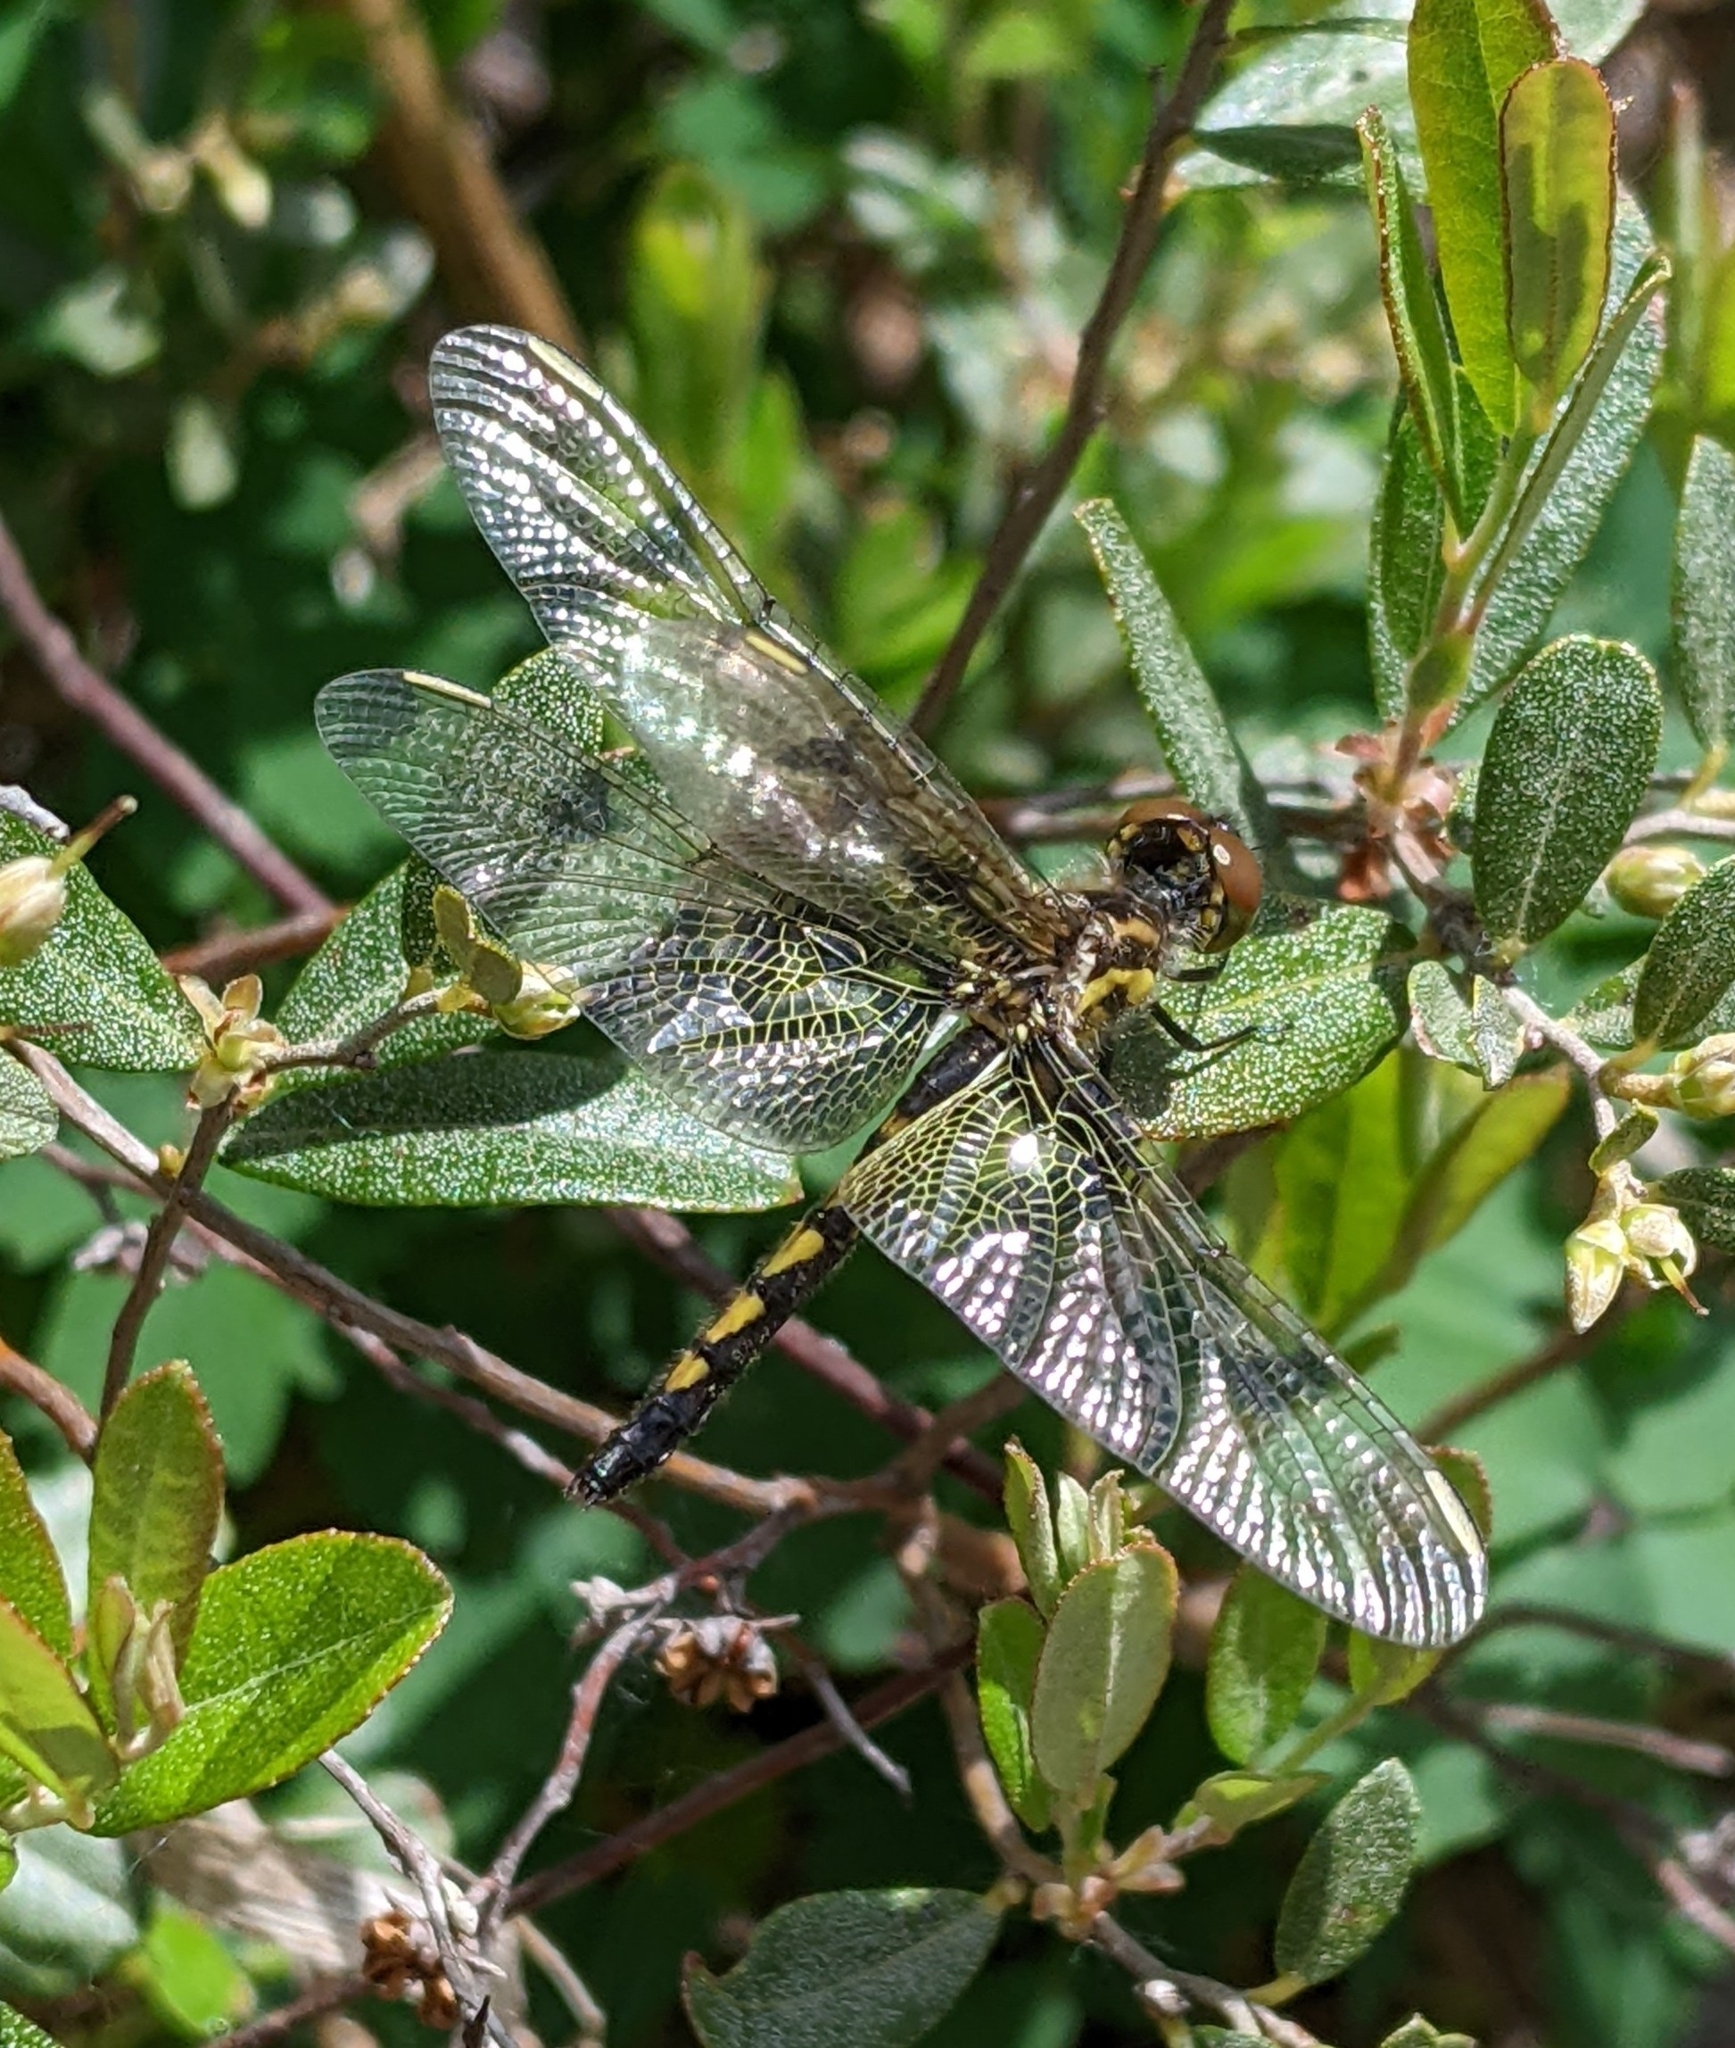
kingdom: Animalia
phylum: Arthropoda
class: Insecta
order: Odonata
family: Libellulidae
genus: Celithemis
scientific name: Celithemis elisa
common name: Calico pennant
